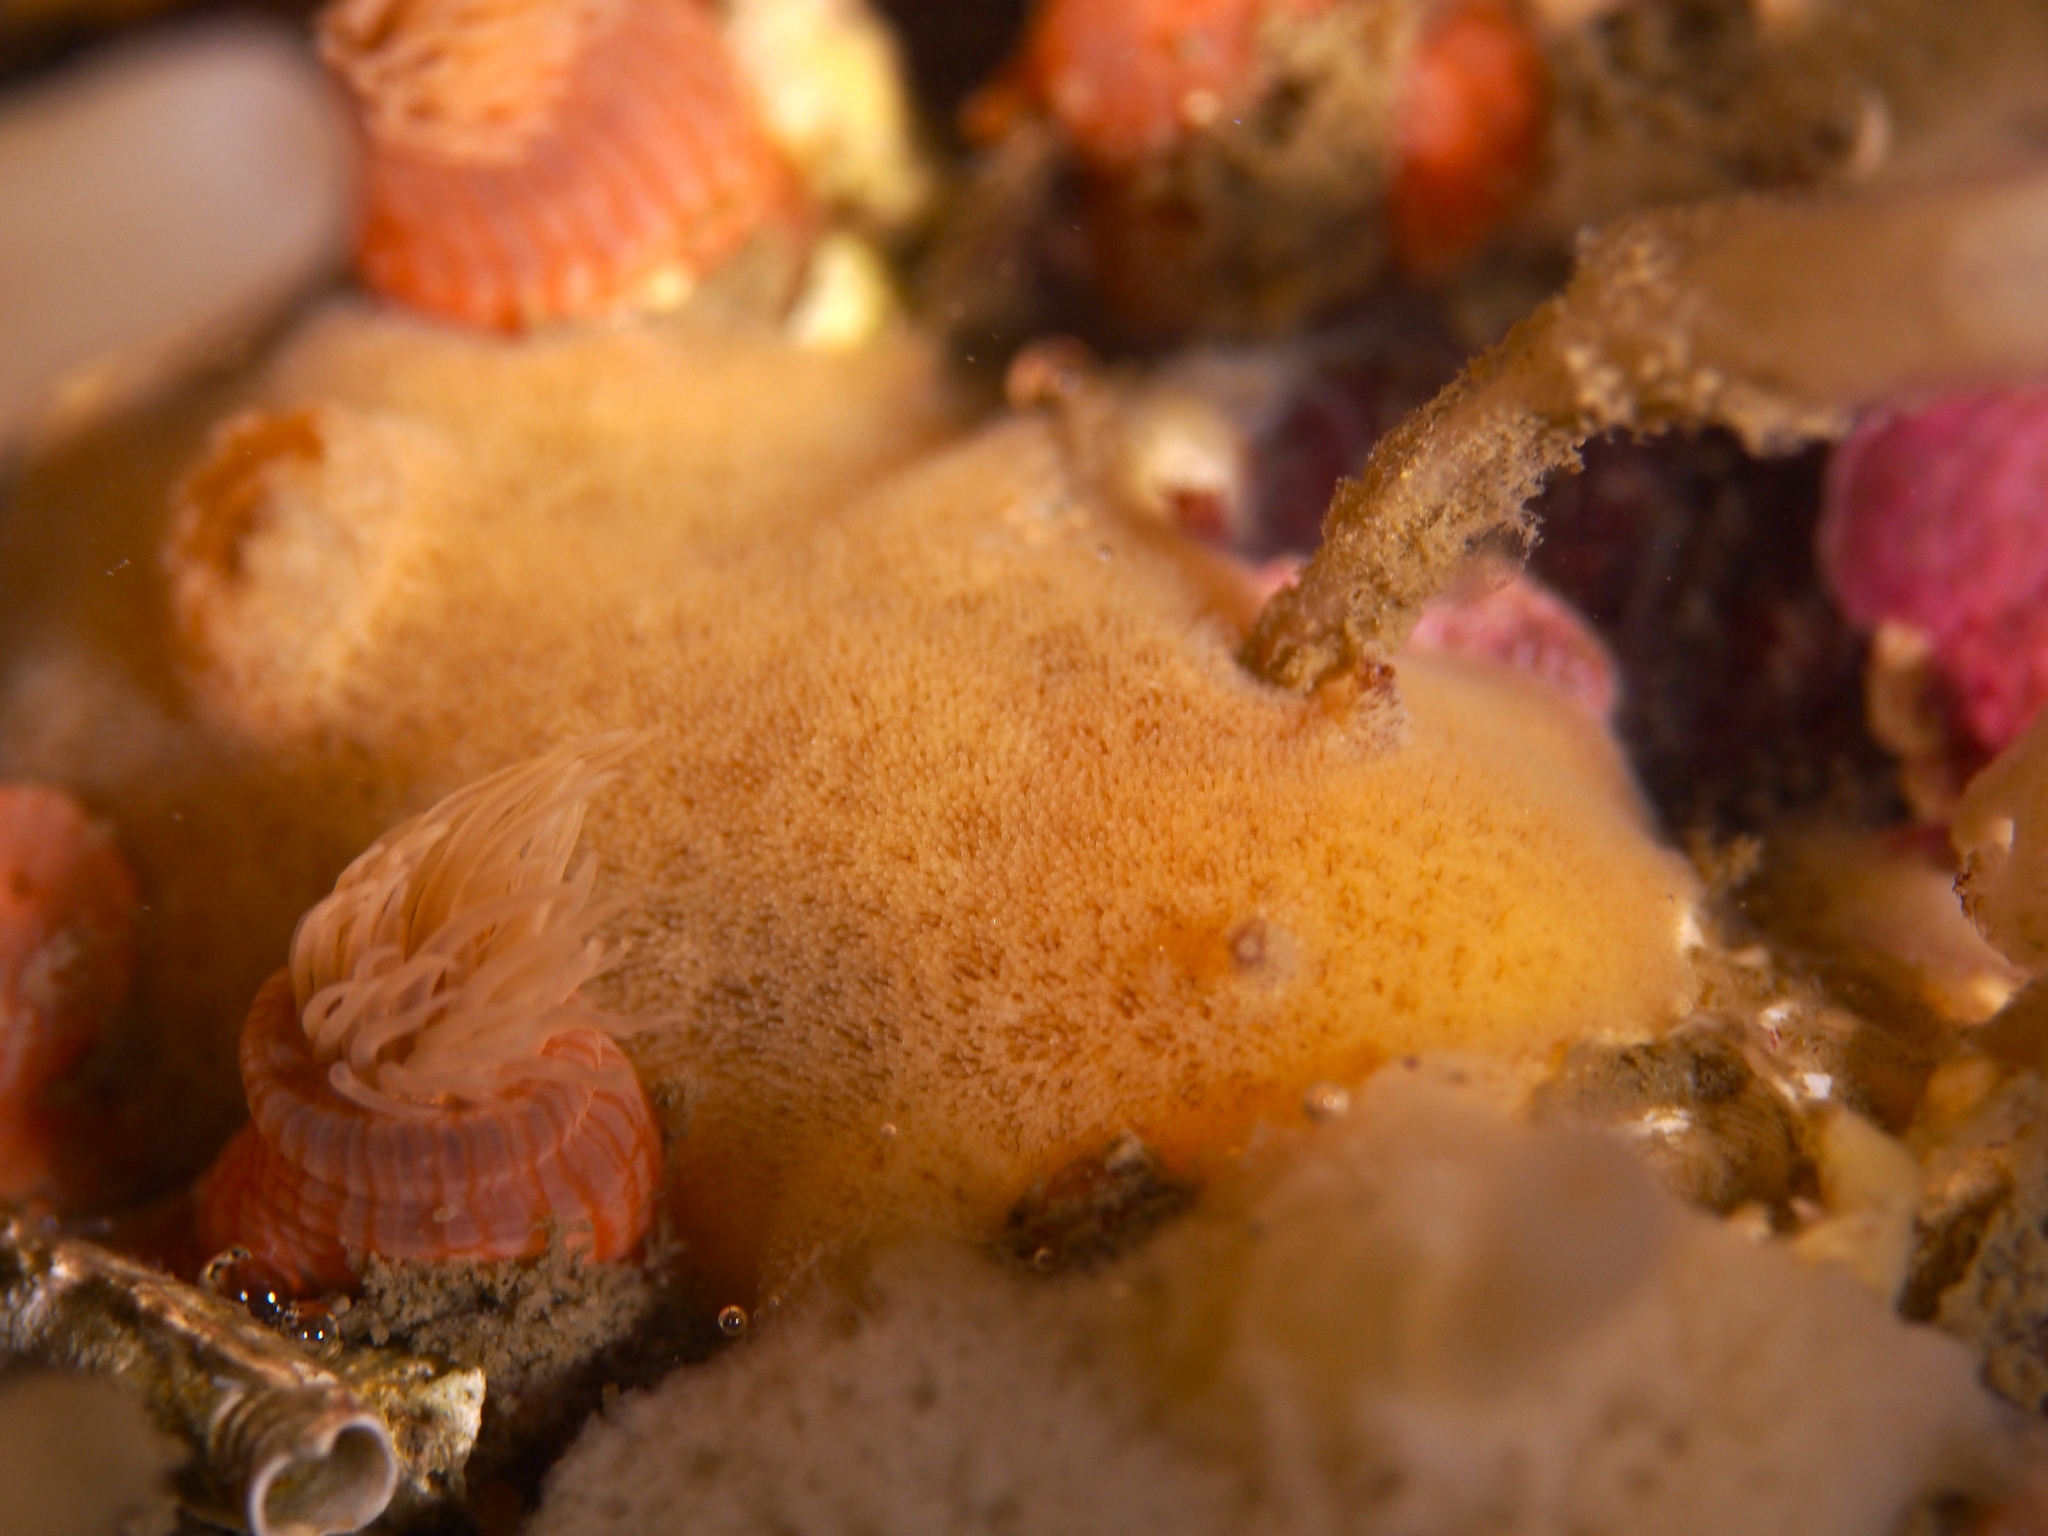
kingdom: Animalia
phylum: Mollusca
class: Gastropoda
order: Nudibranchia
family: Discodorididae
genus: Jorunna
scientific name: Jorunna tomentosa
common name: Grey sea slug
